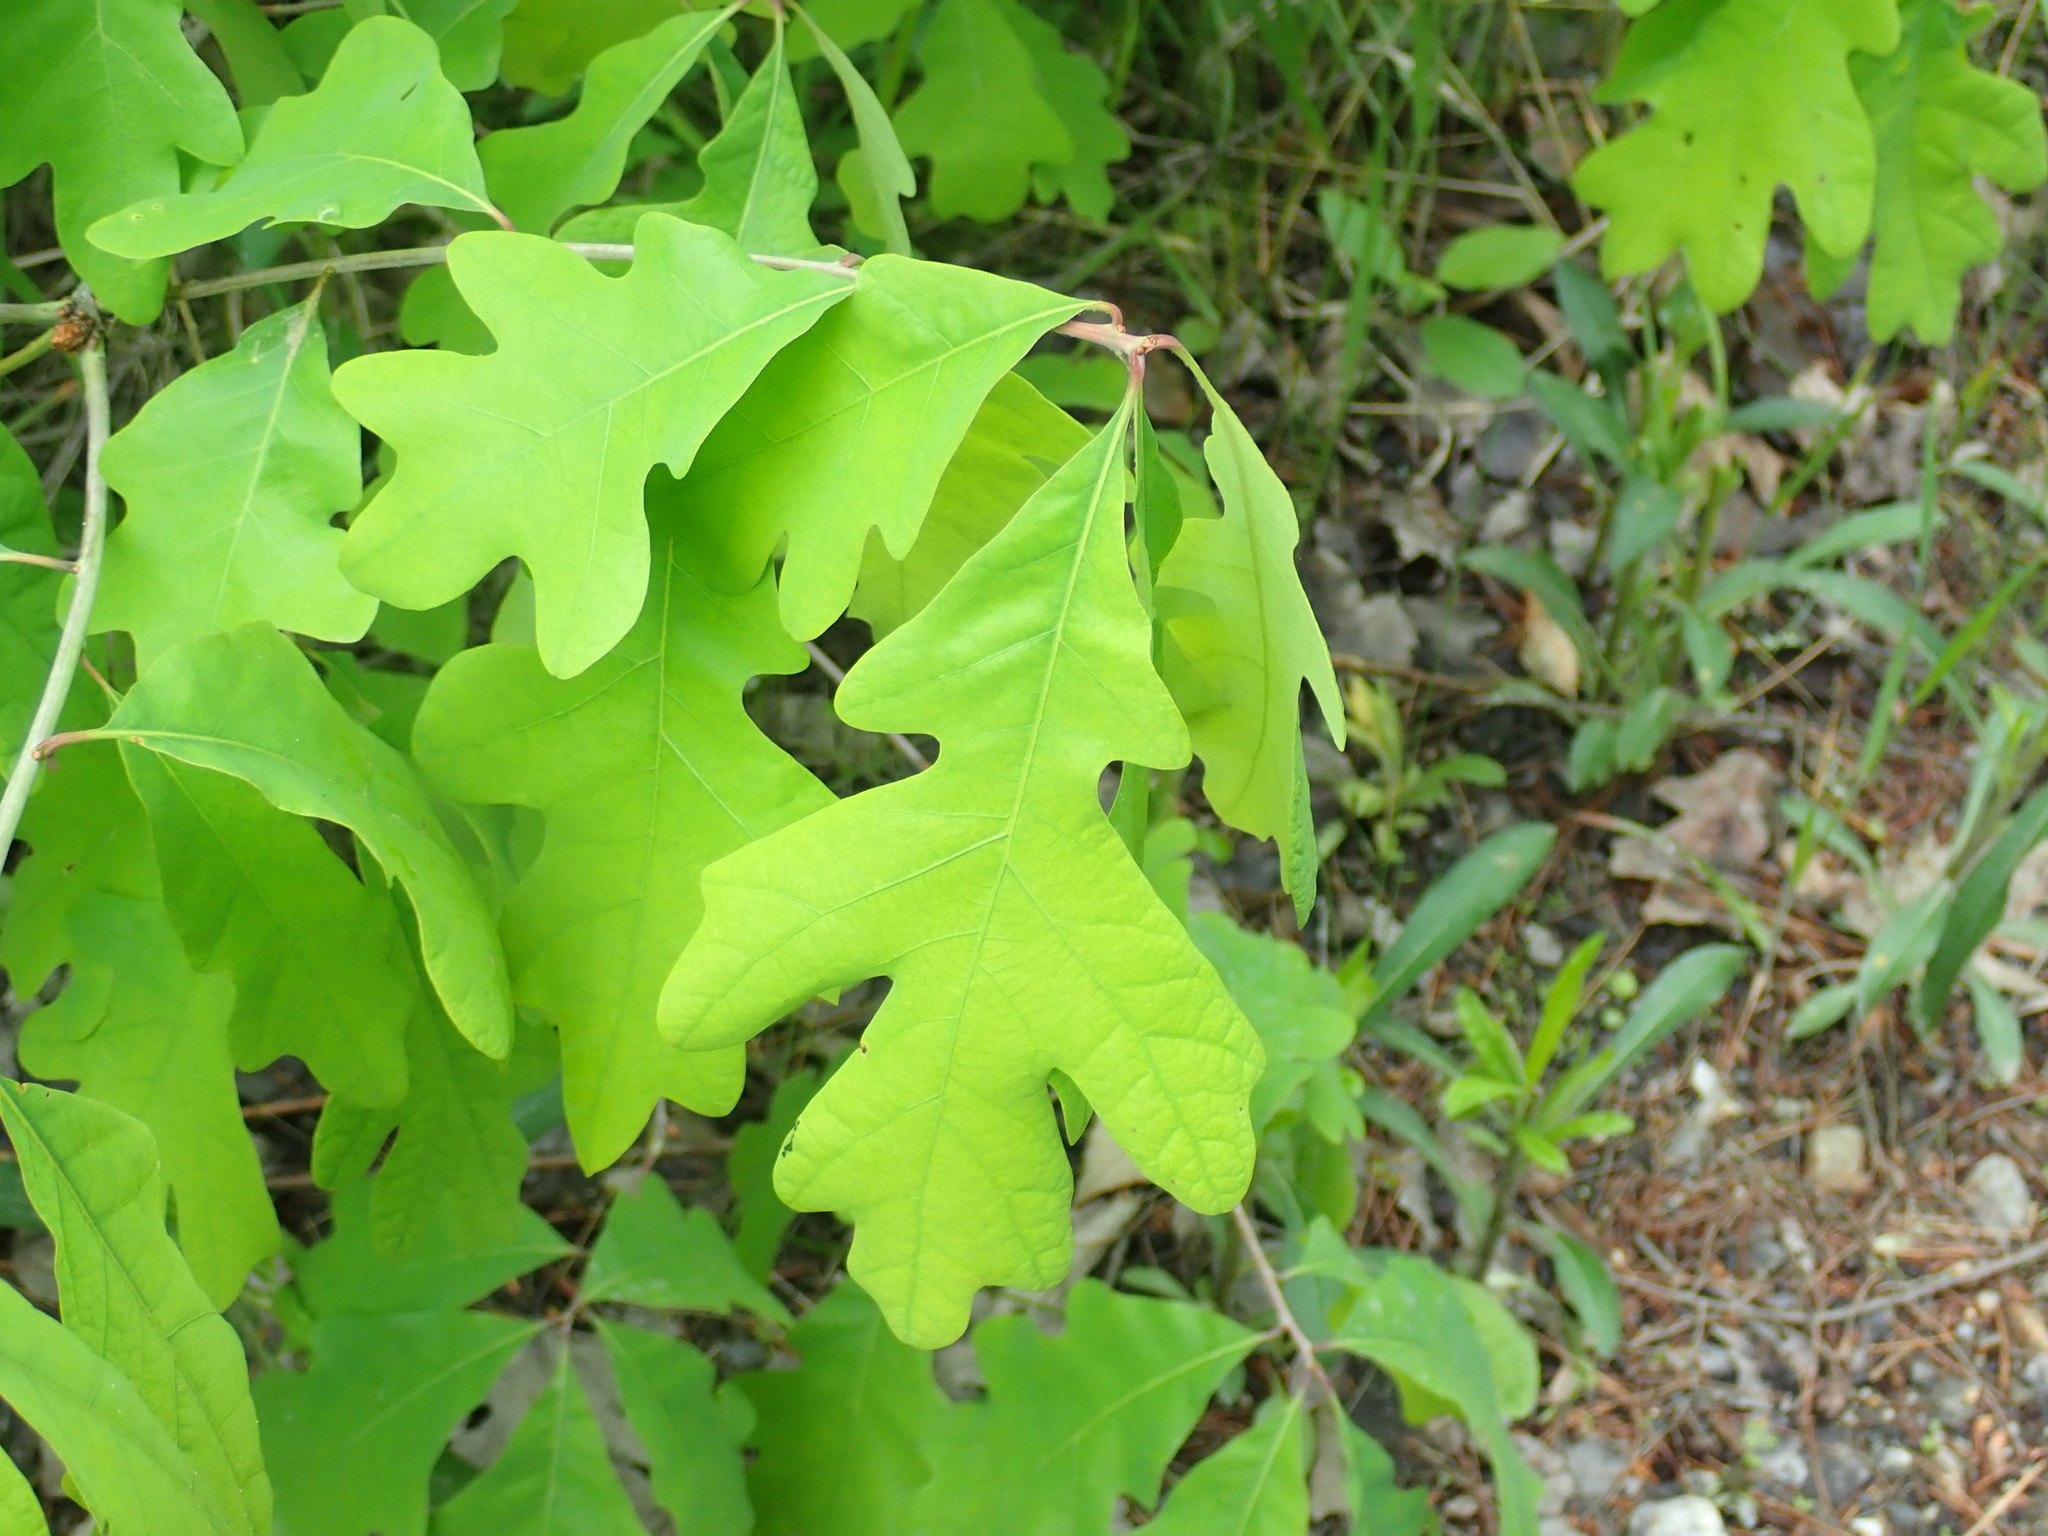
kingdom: Plantae
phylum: Tracheophyta
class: Magnoliopsida
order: Fagales
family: Fagaceae
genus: Quercus
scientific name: Quercus alba
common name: White oak
